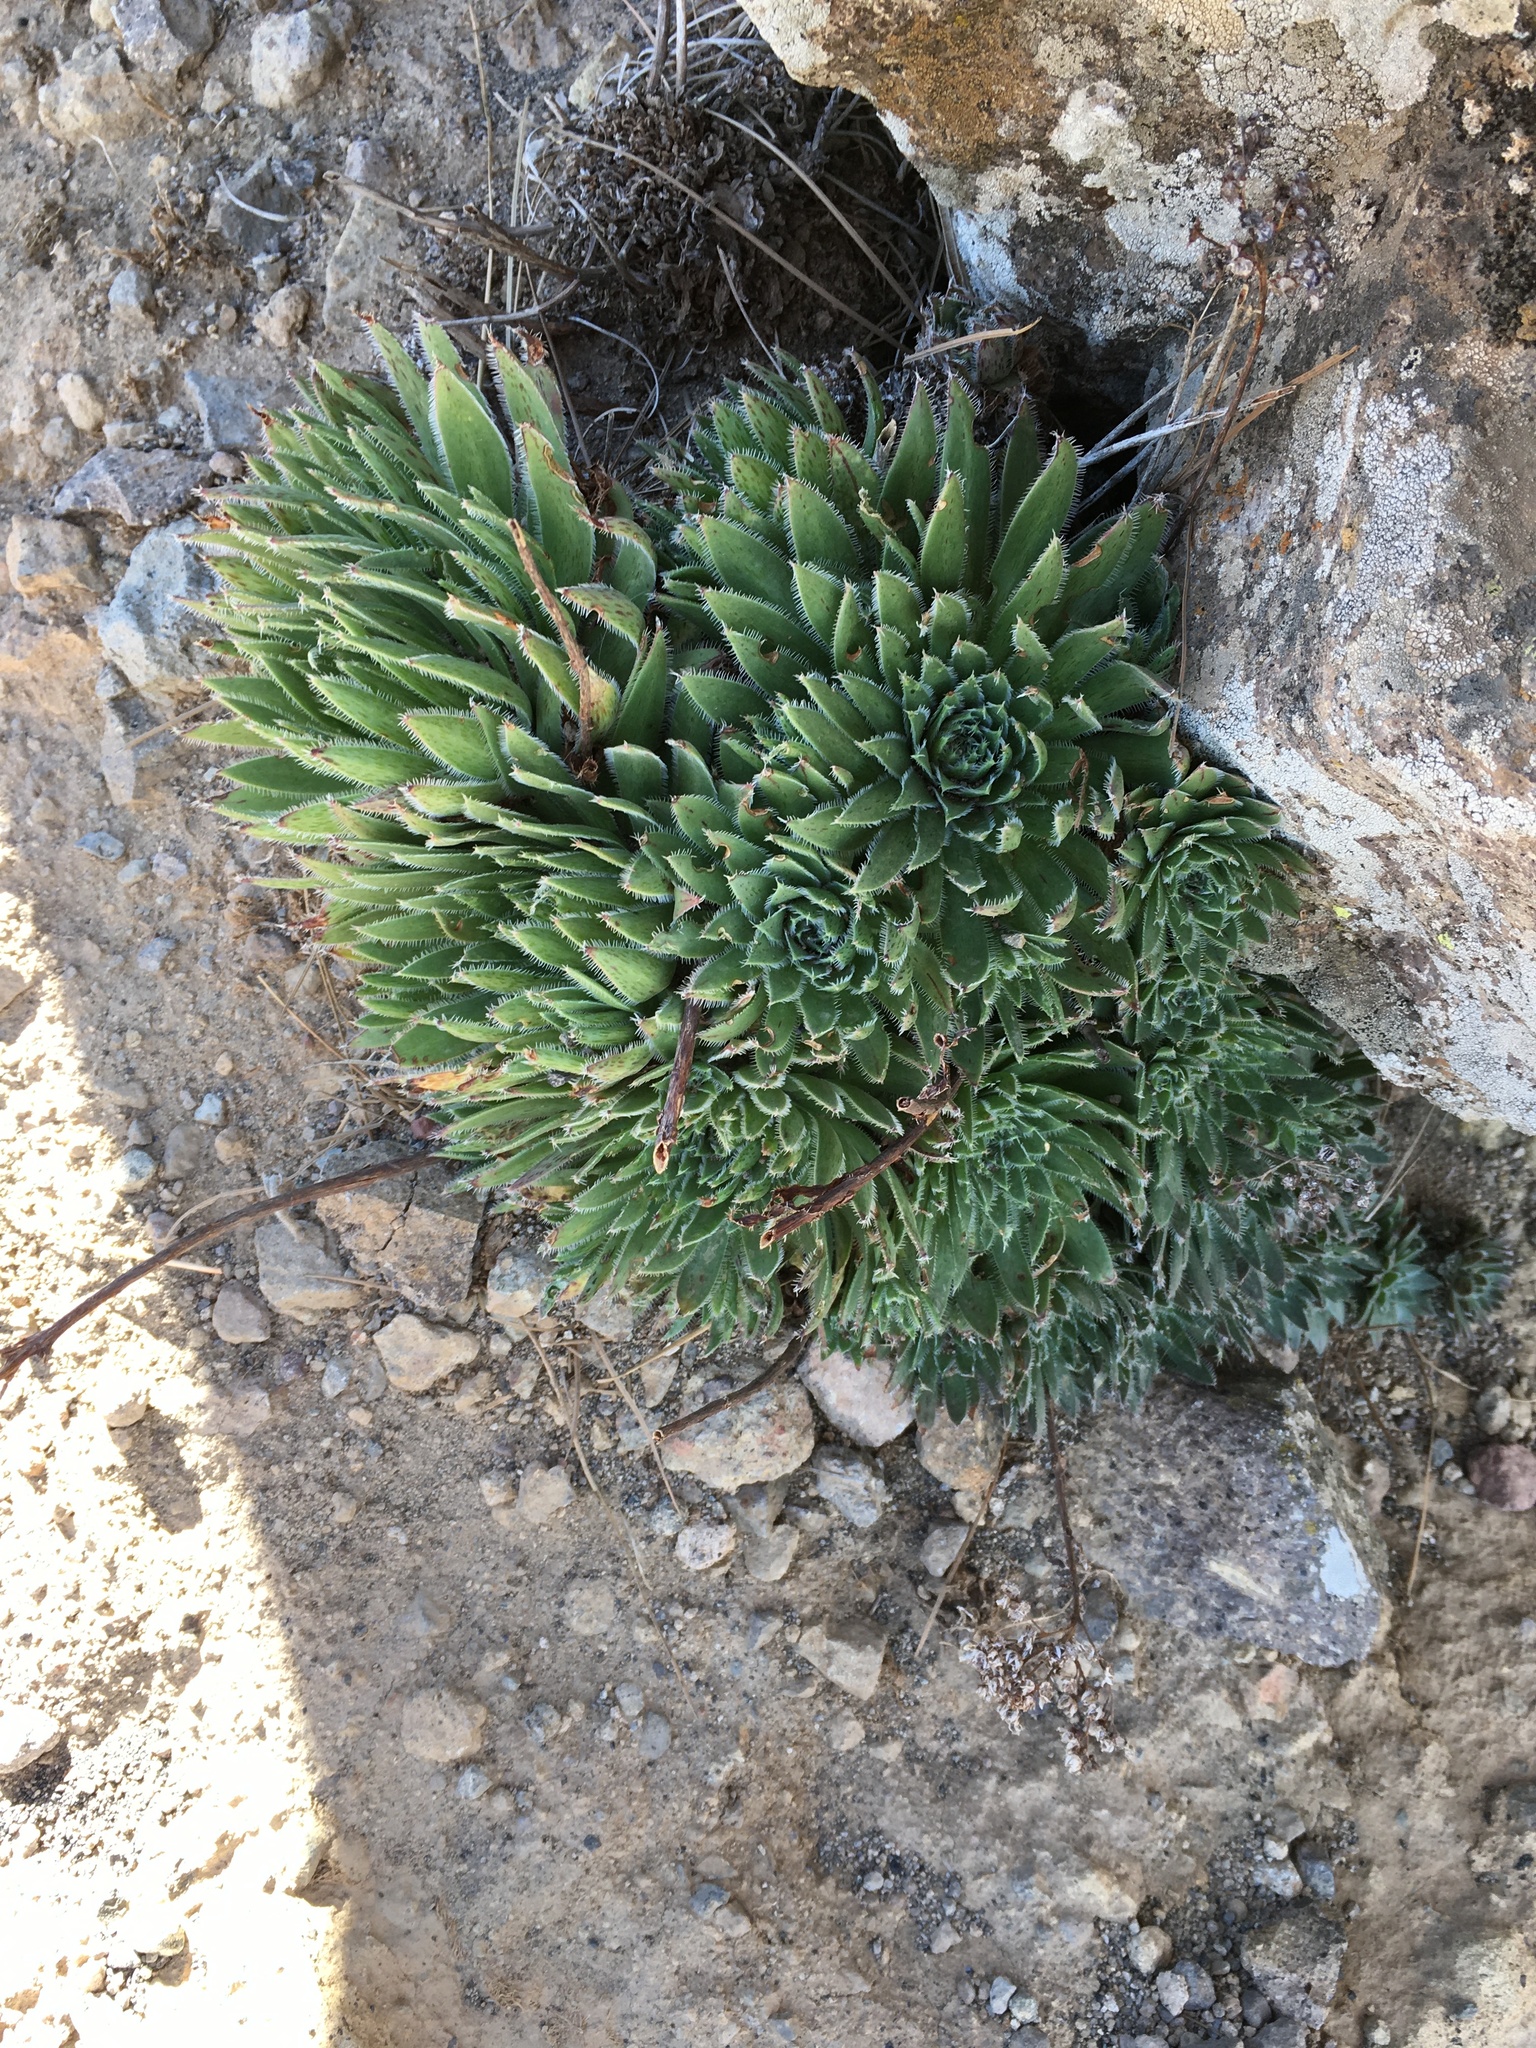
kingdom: Plantae
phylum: Tracheophyta
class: Magnoliopsida
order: Saxifragales
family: Crassulaceae
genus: Aeonium
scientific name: Aeonium simsii
